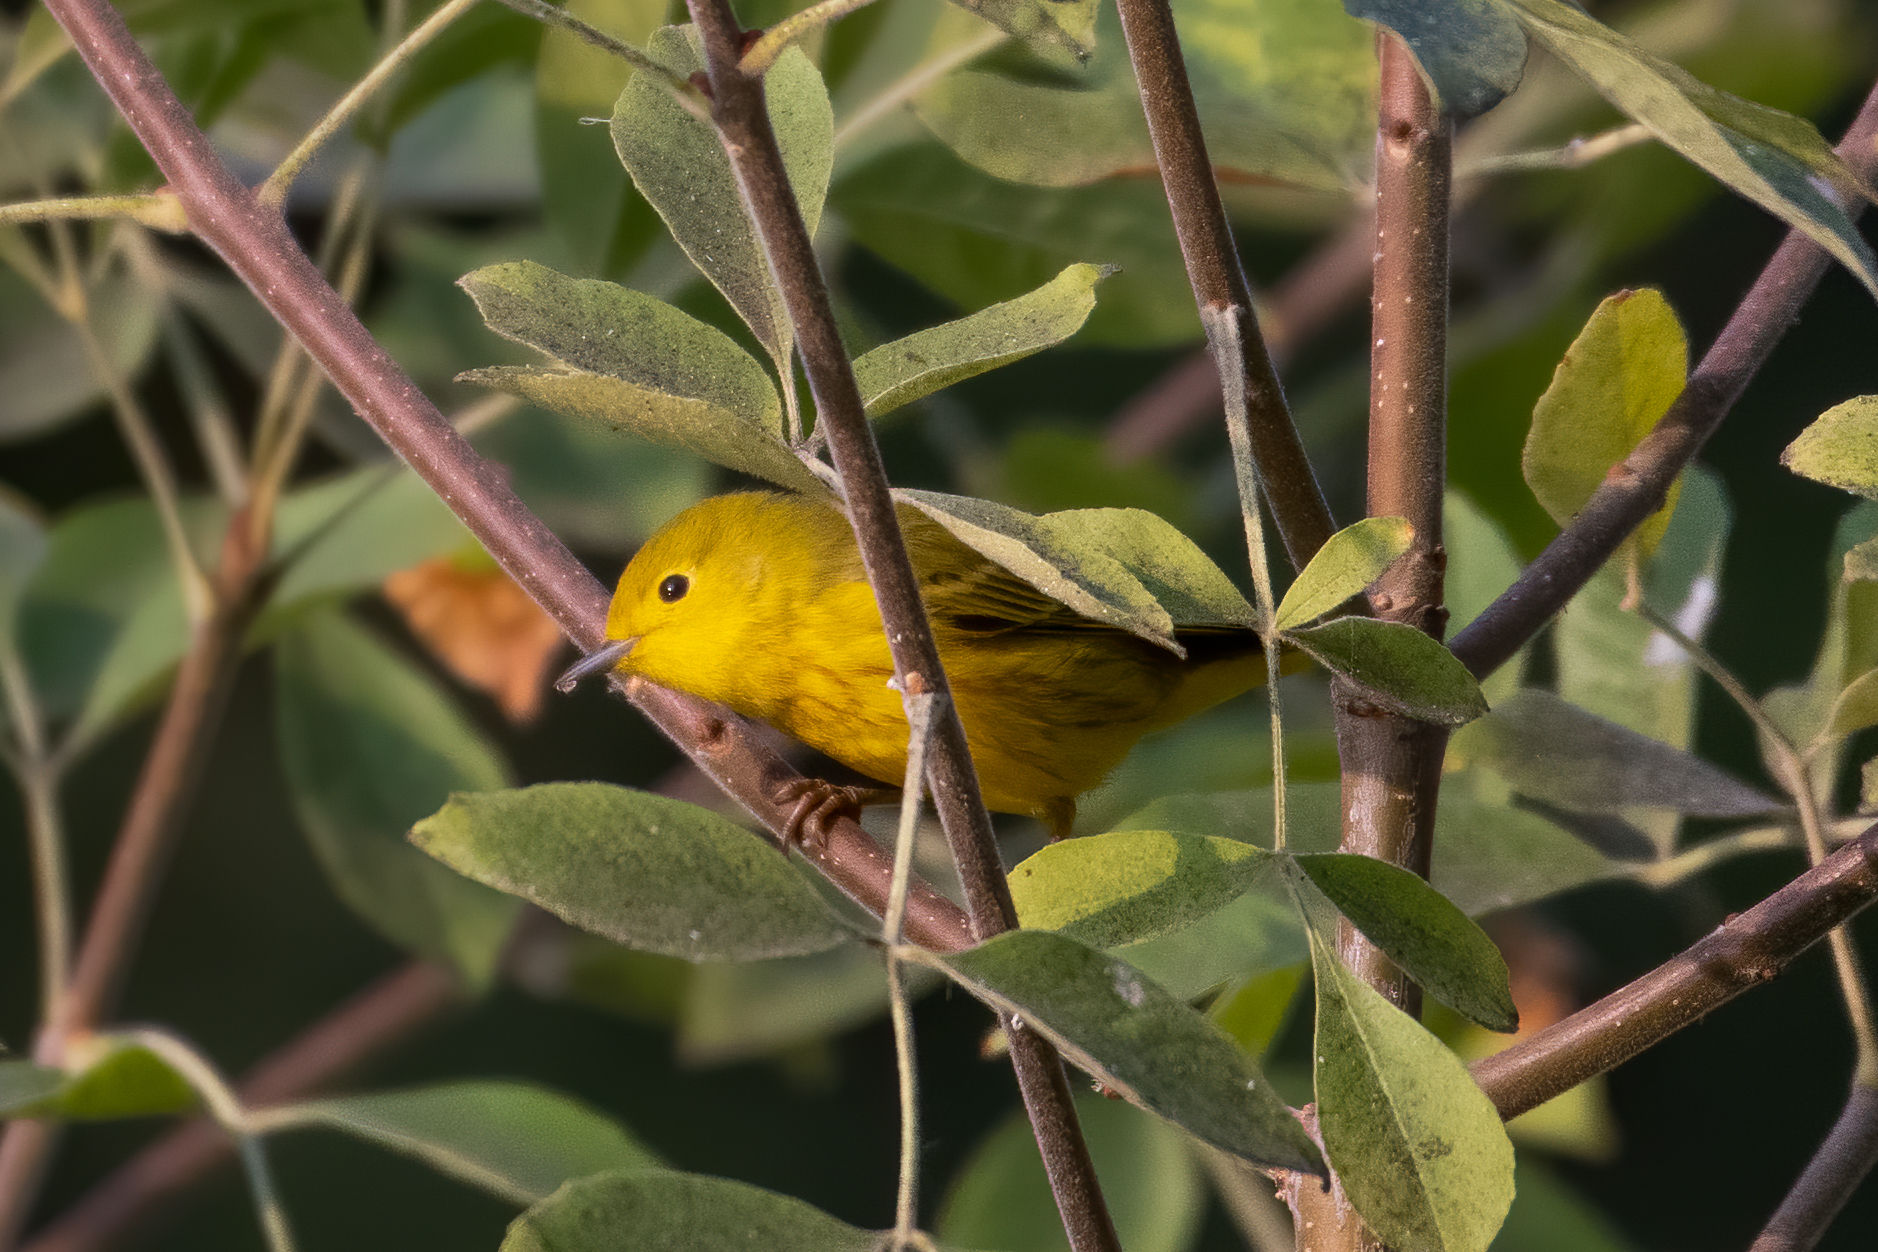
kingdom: Animalia
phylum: Chordata
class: Aves
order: Passeriformes
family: Parulidae
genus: Setophaga
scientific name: Setophaga petechia
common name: Yellow warbler
